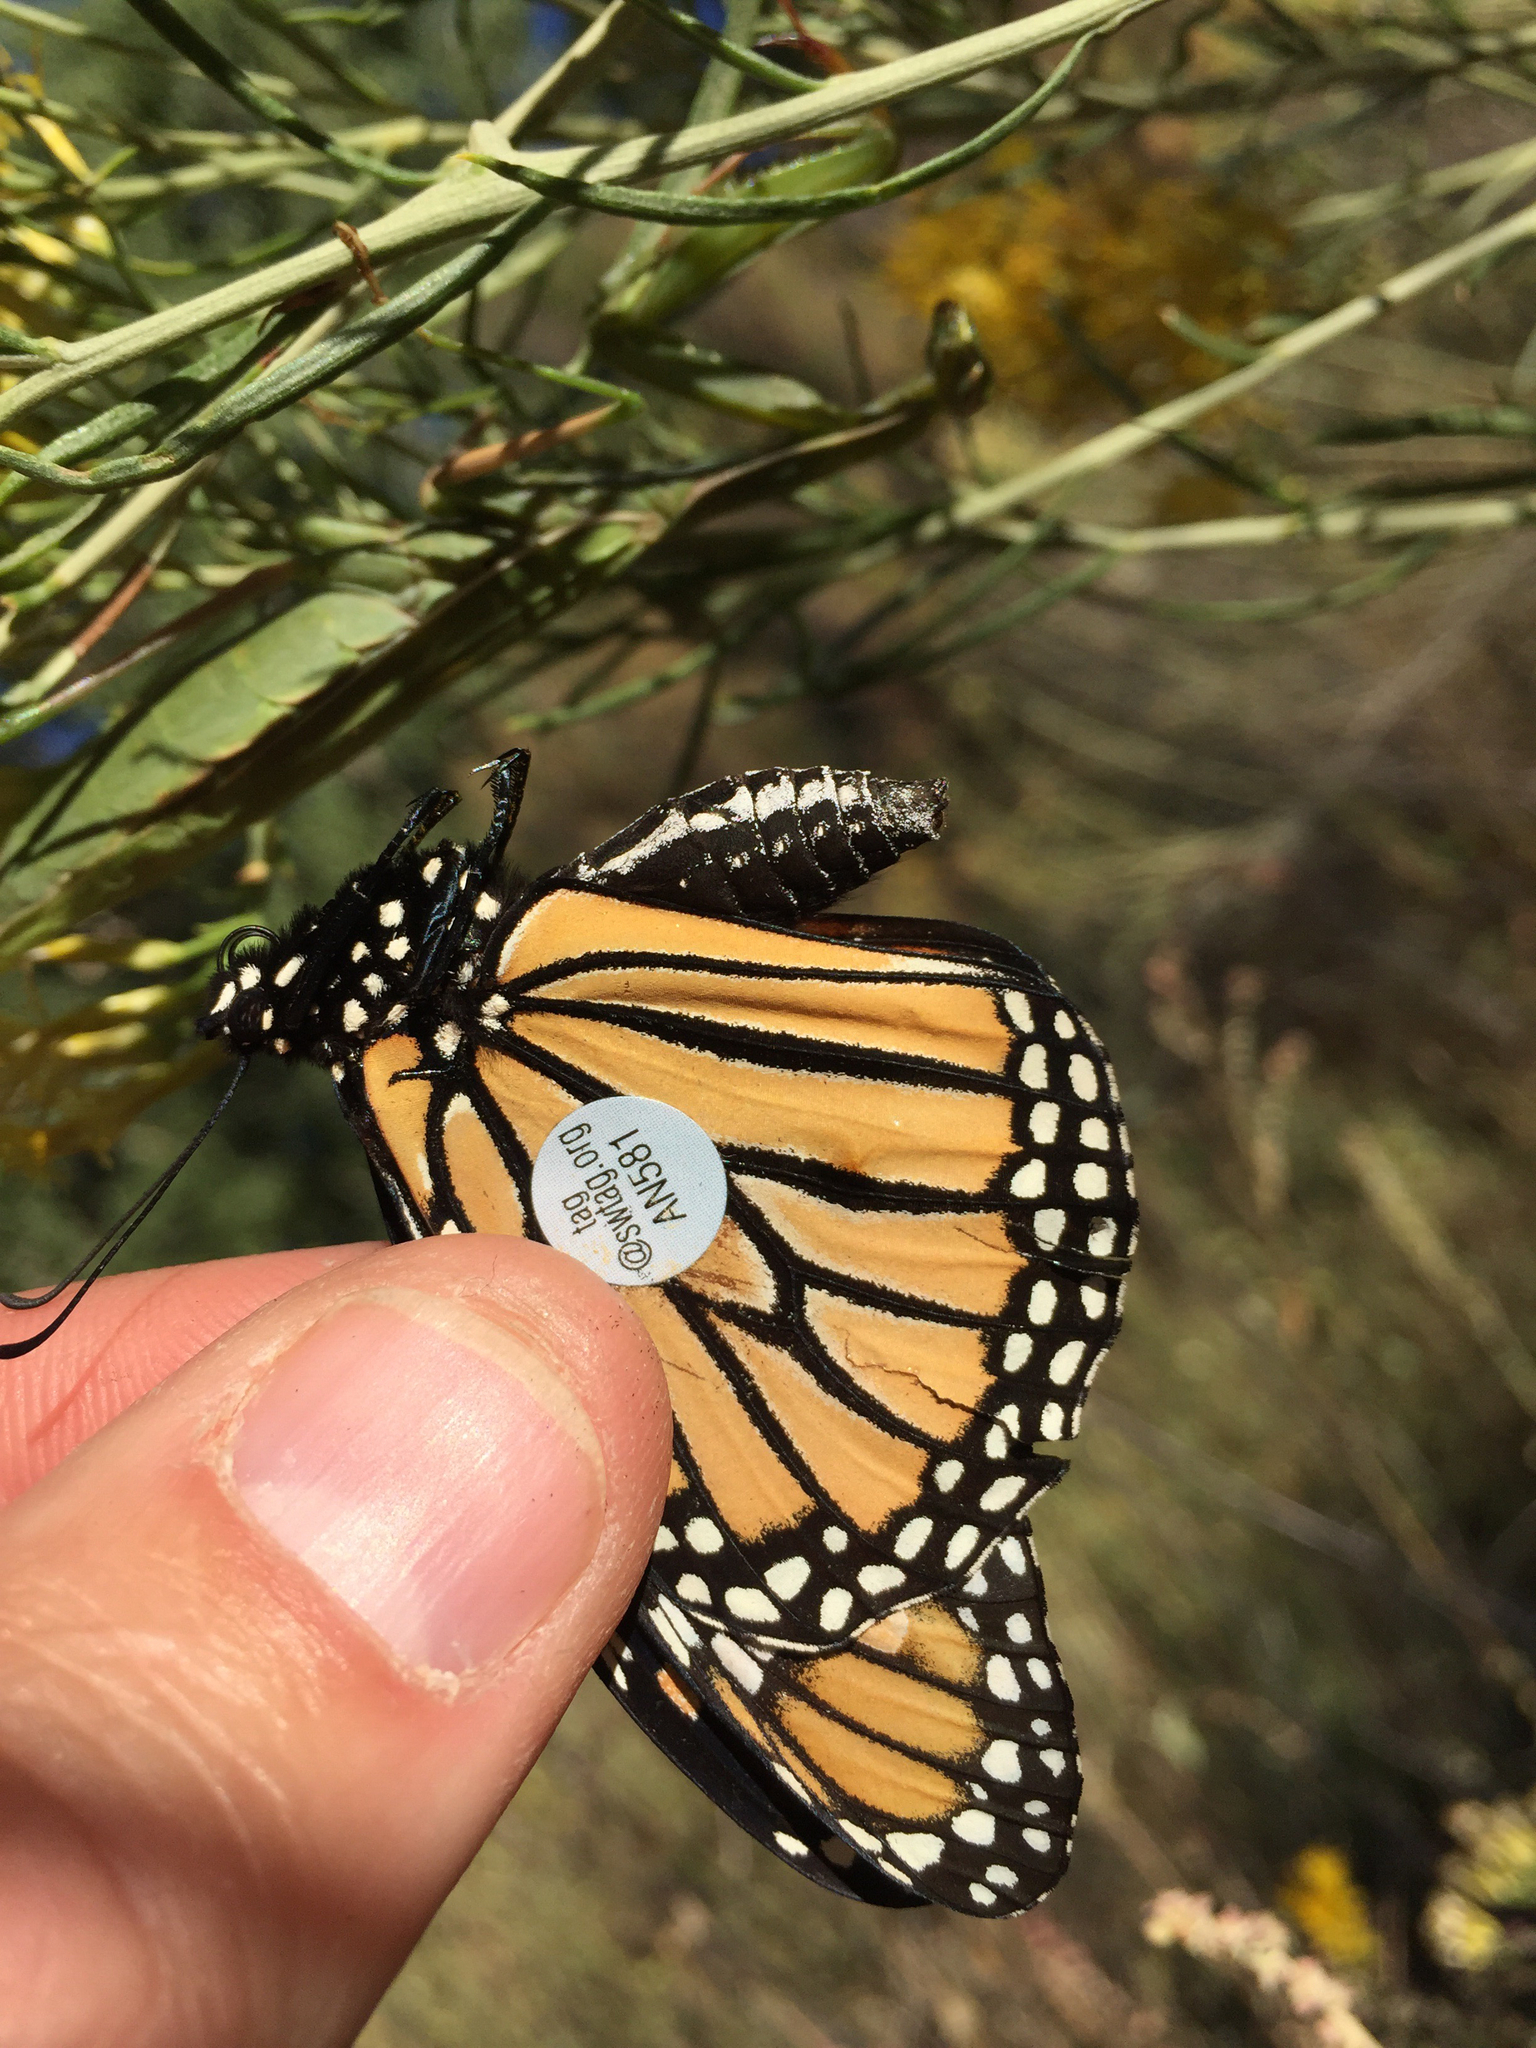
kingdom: Animalia
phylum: Arthropoda
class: Insecta
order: Lepidoptera
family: Nymphalidae
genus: Danaus
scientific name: Danaus plexippus
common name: Monarch
